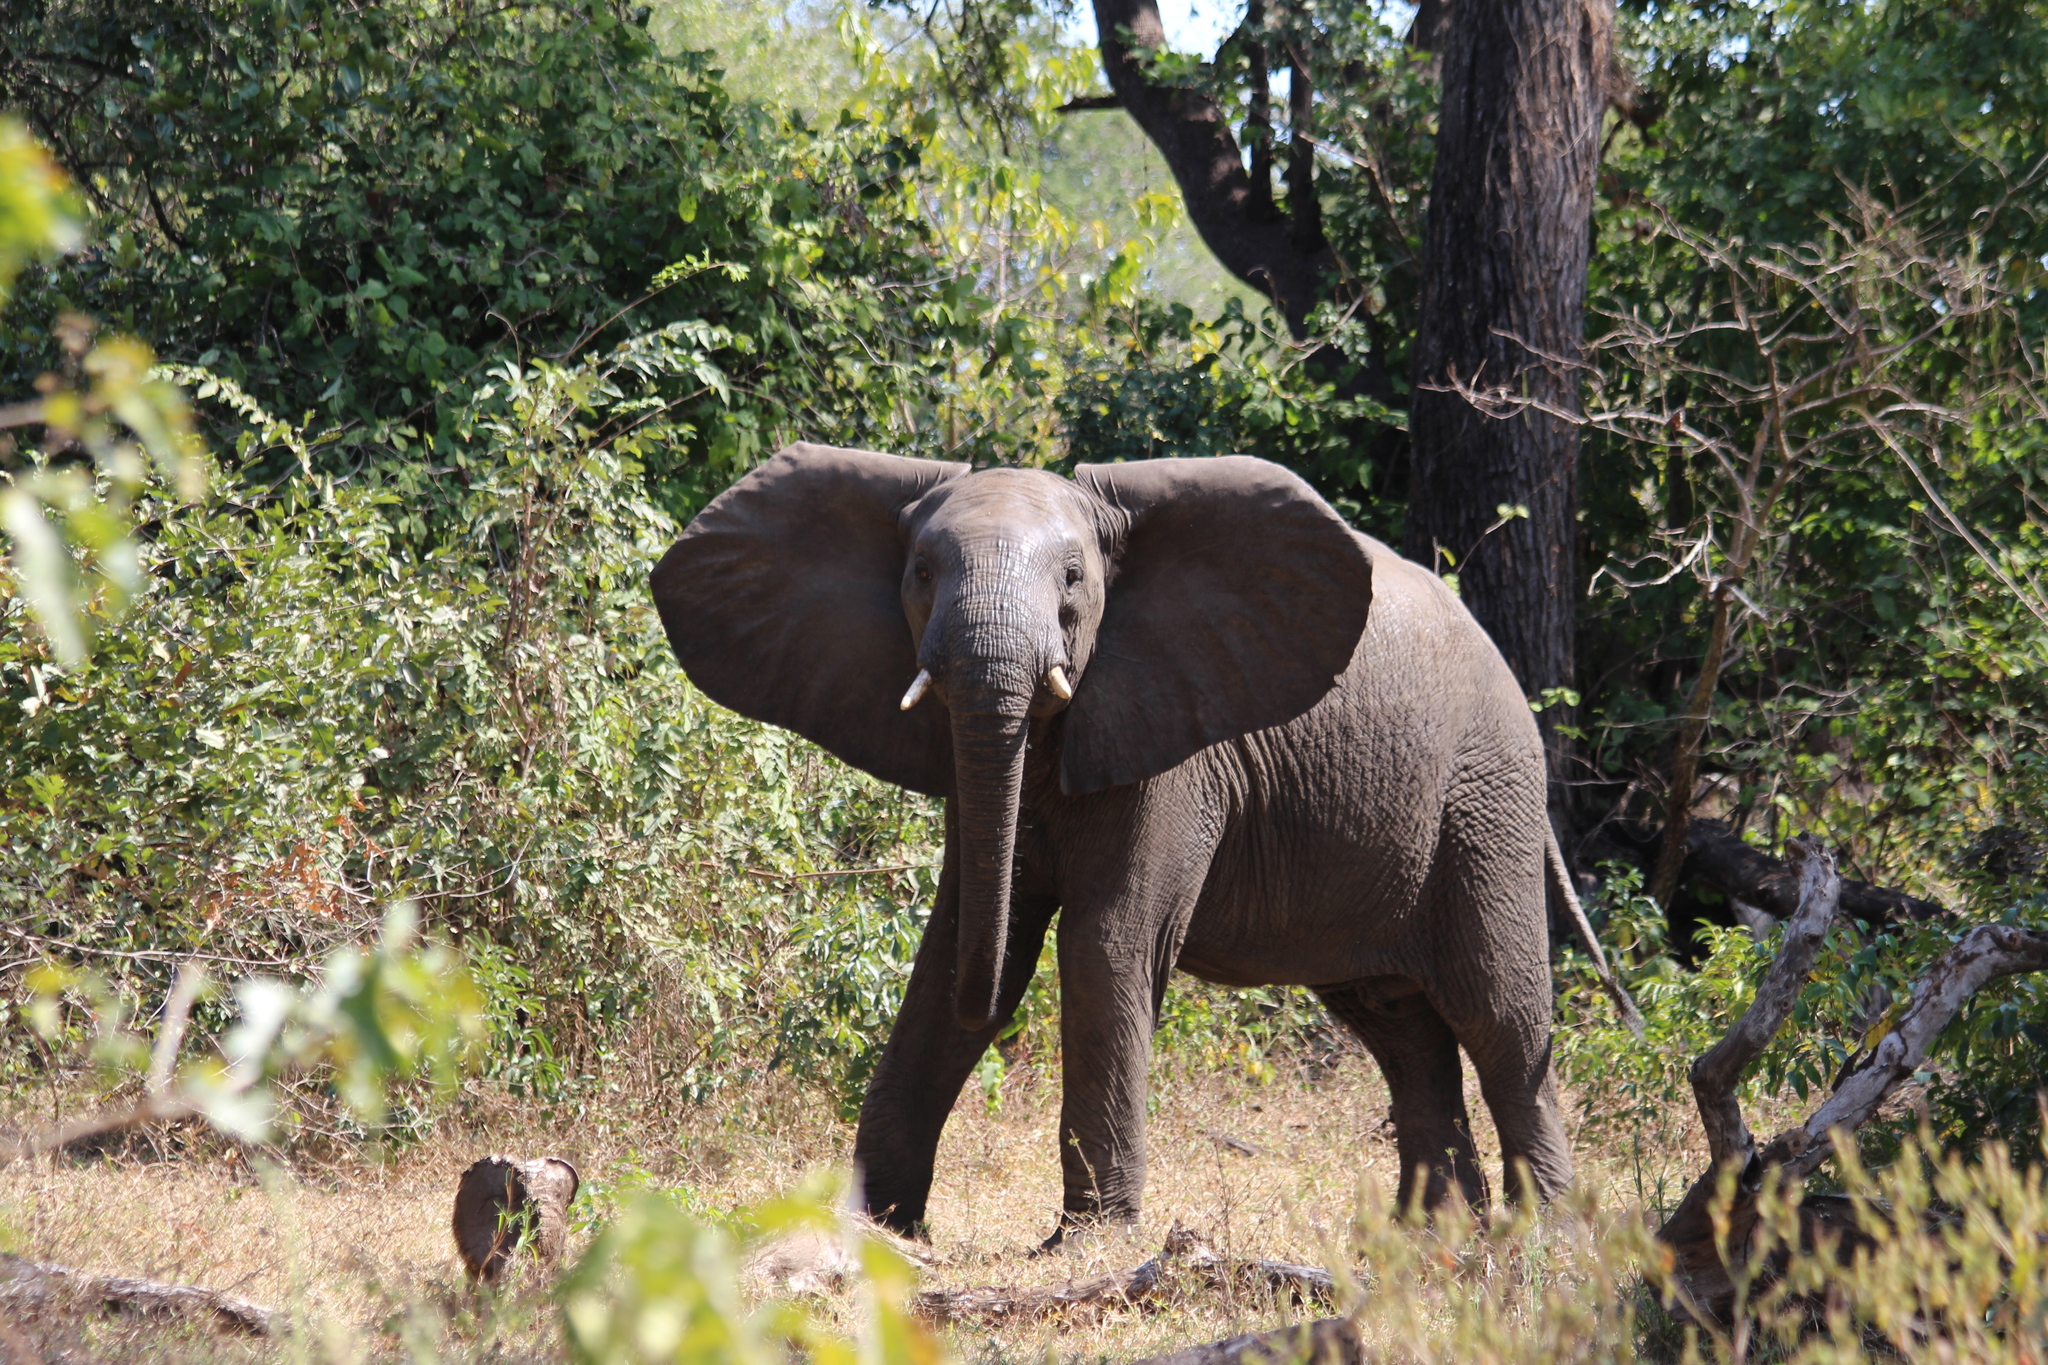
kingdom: Animalia
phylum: Chordata
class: Mammalia
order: Proboscidea
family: Elephantidae
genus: Loxodonta
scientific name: Loxodonta africana
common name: African elephant
